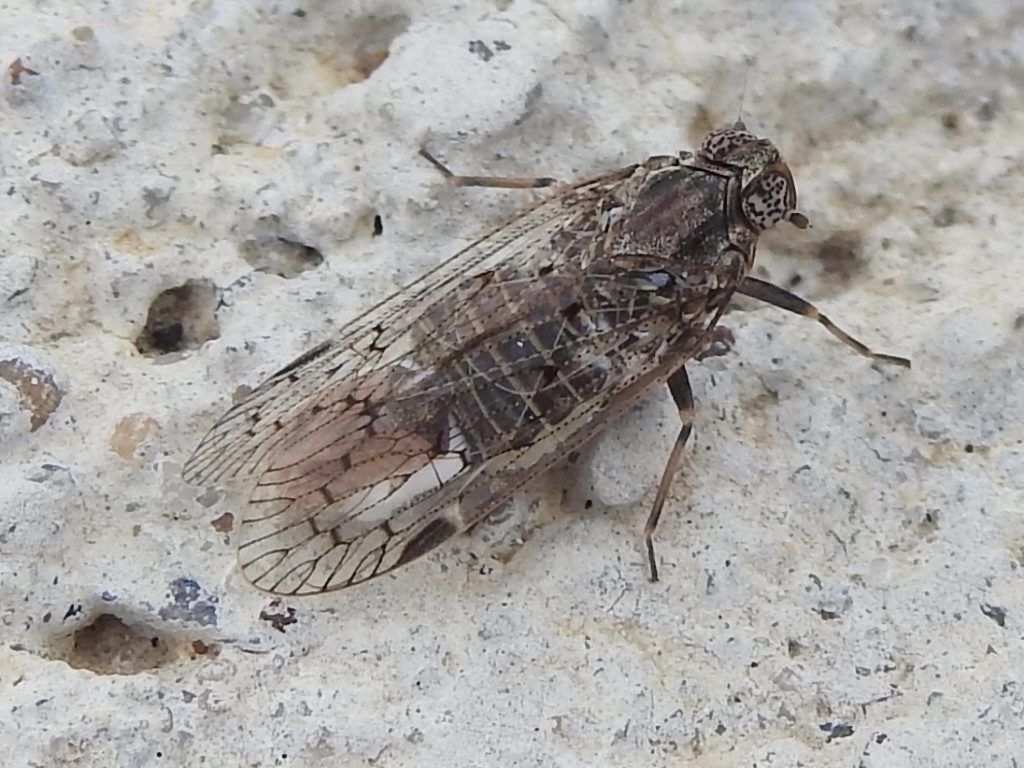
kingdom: Animalia
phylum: Arthropoda
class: Insecta
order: Hemiptera
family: Cixiidae
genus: Melanoliarus
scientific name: Melanoliarus aridus
